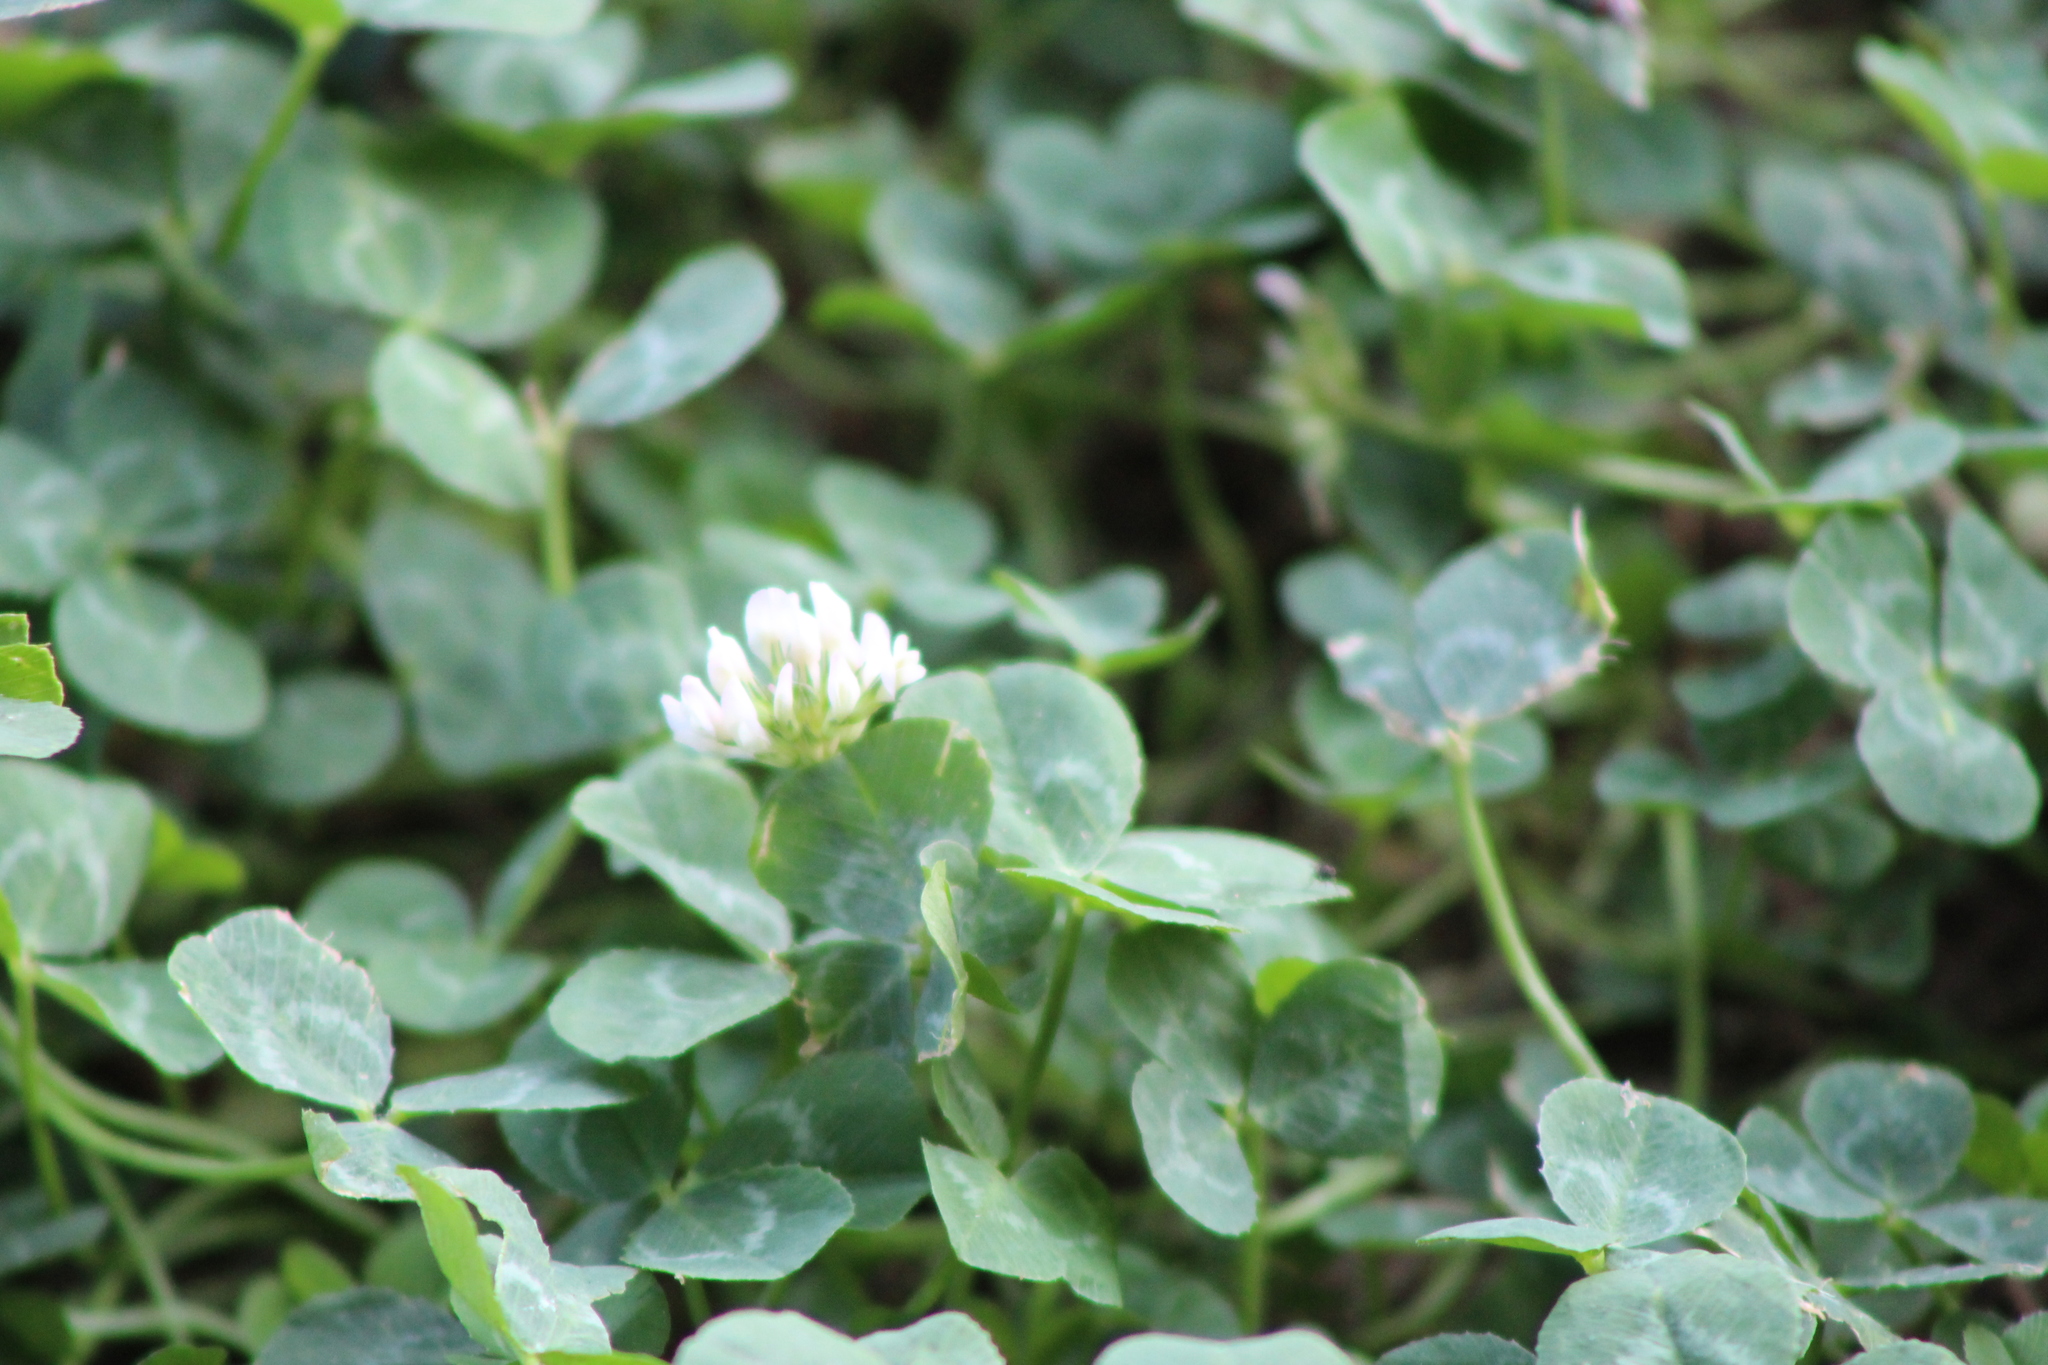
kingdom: Plantae
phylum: Tracheophyta
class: Magnoliopsida
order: Fabales
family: Fabaceae
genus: Trifolium
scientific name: Trifolium repens
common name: White clover
